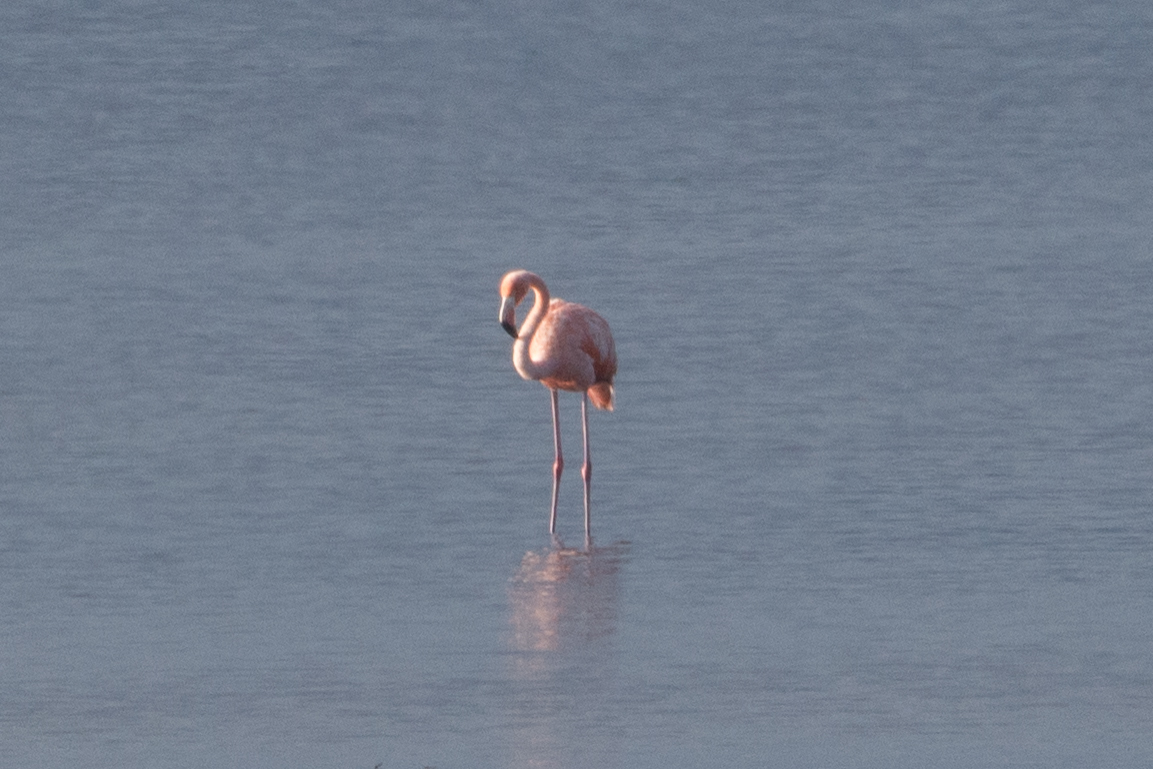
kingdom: Animalia
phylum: Chordata
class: Aves
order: Phoenicopteriformes
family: Phoenicopteridae
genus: Phoenicopterus
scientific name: Phoenicopterus ruber
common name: American flamingo
